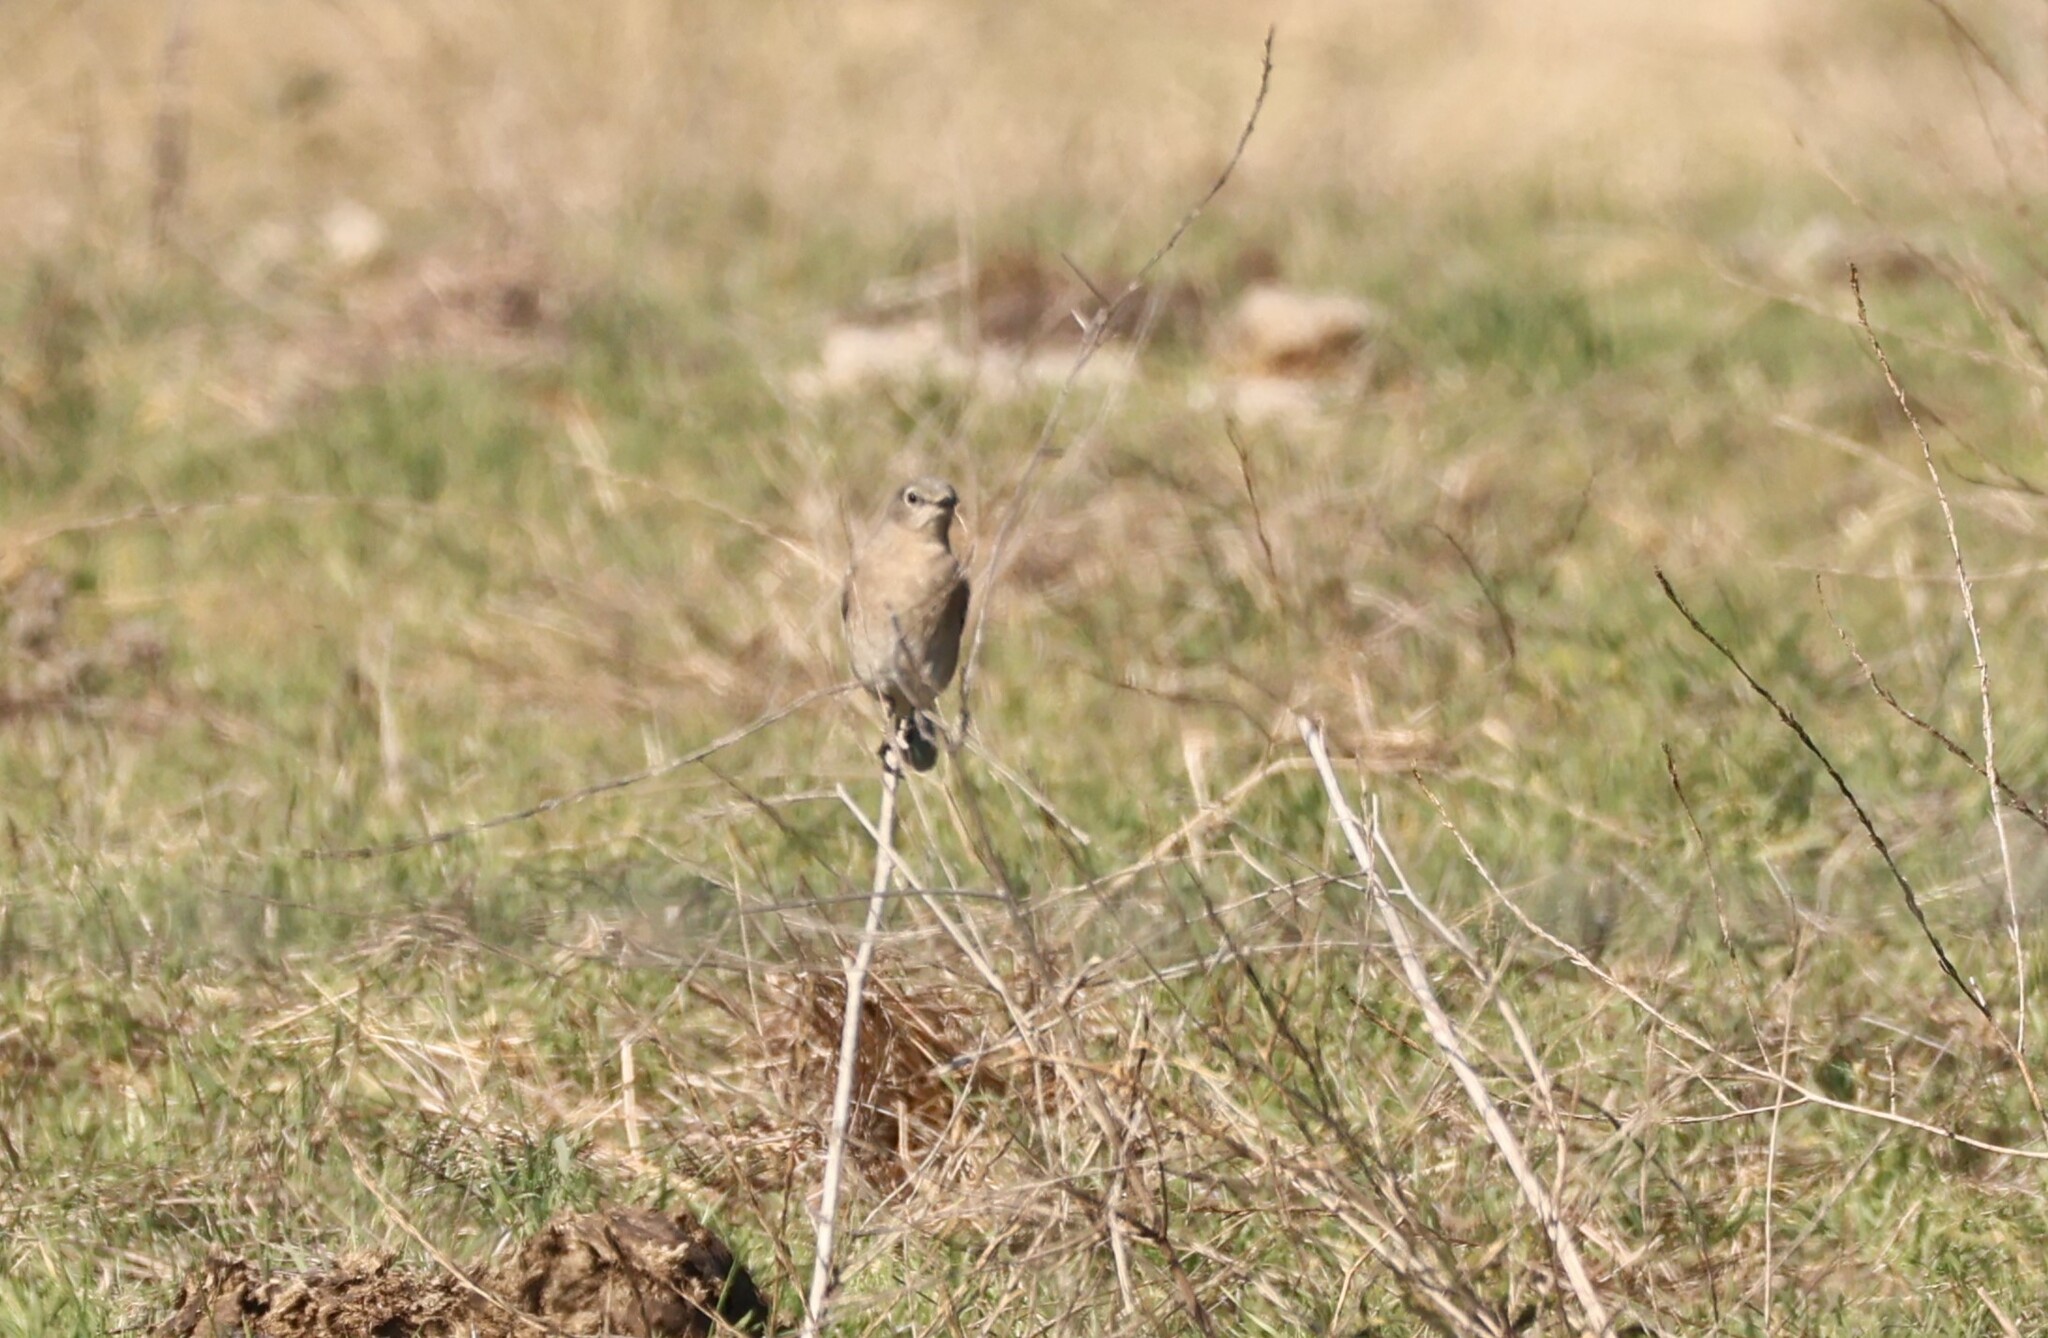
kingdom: Animalia
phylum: Chordata
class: Aves
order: Passeriformes
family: Turdidae
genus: Sialia
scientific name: Sialia currucoides
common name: Mountain bluebird
